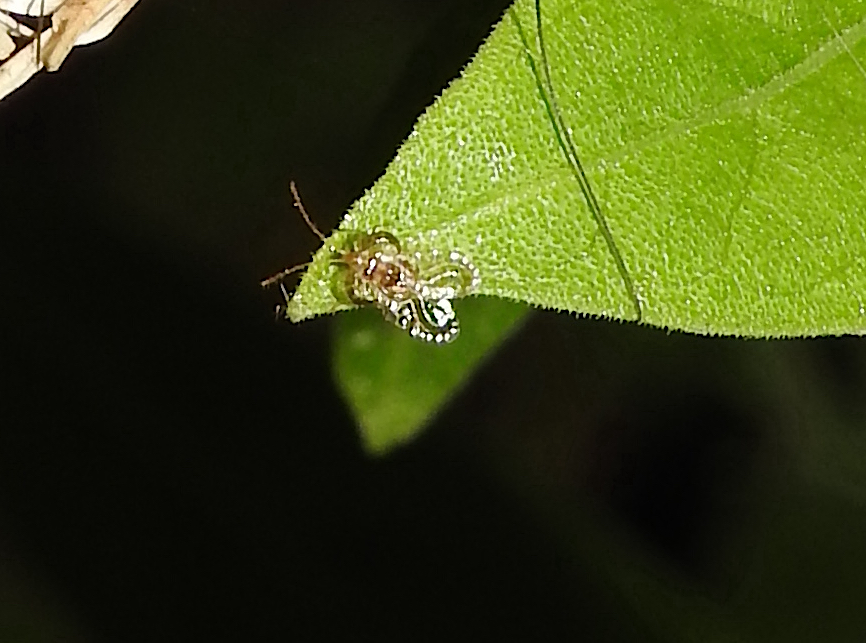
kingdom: Animalia
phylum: Arthropoda
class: Insecta
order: Hemiptera
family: Tingidae
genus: Dulinius
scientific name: Dulinius conchatus
